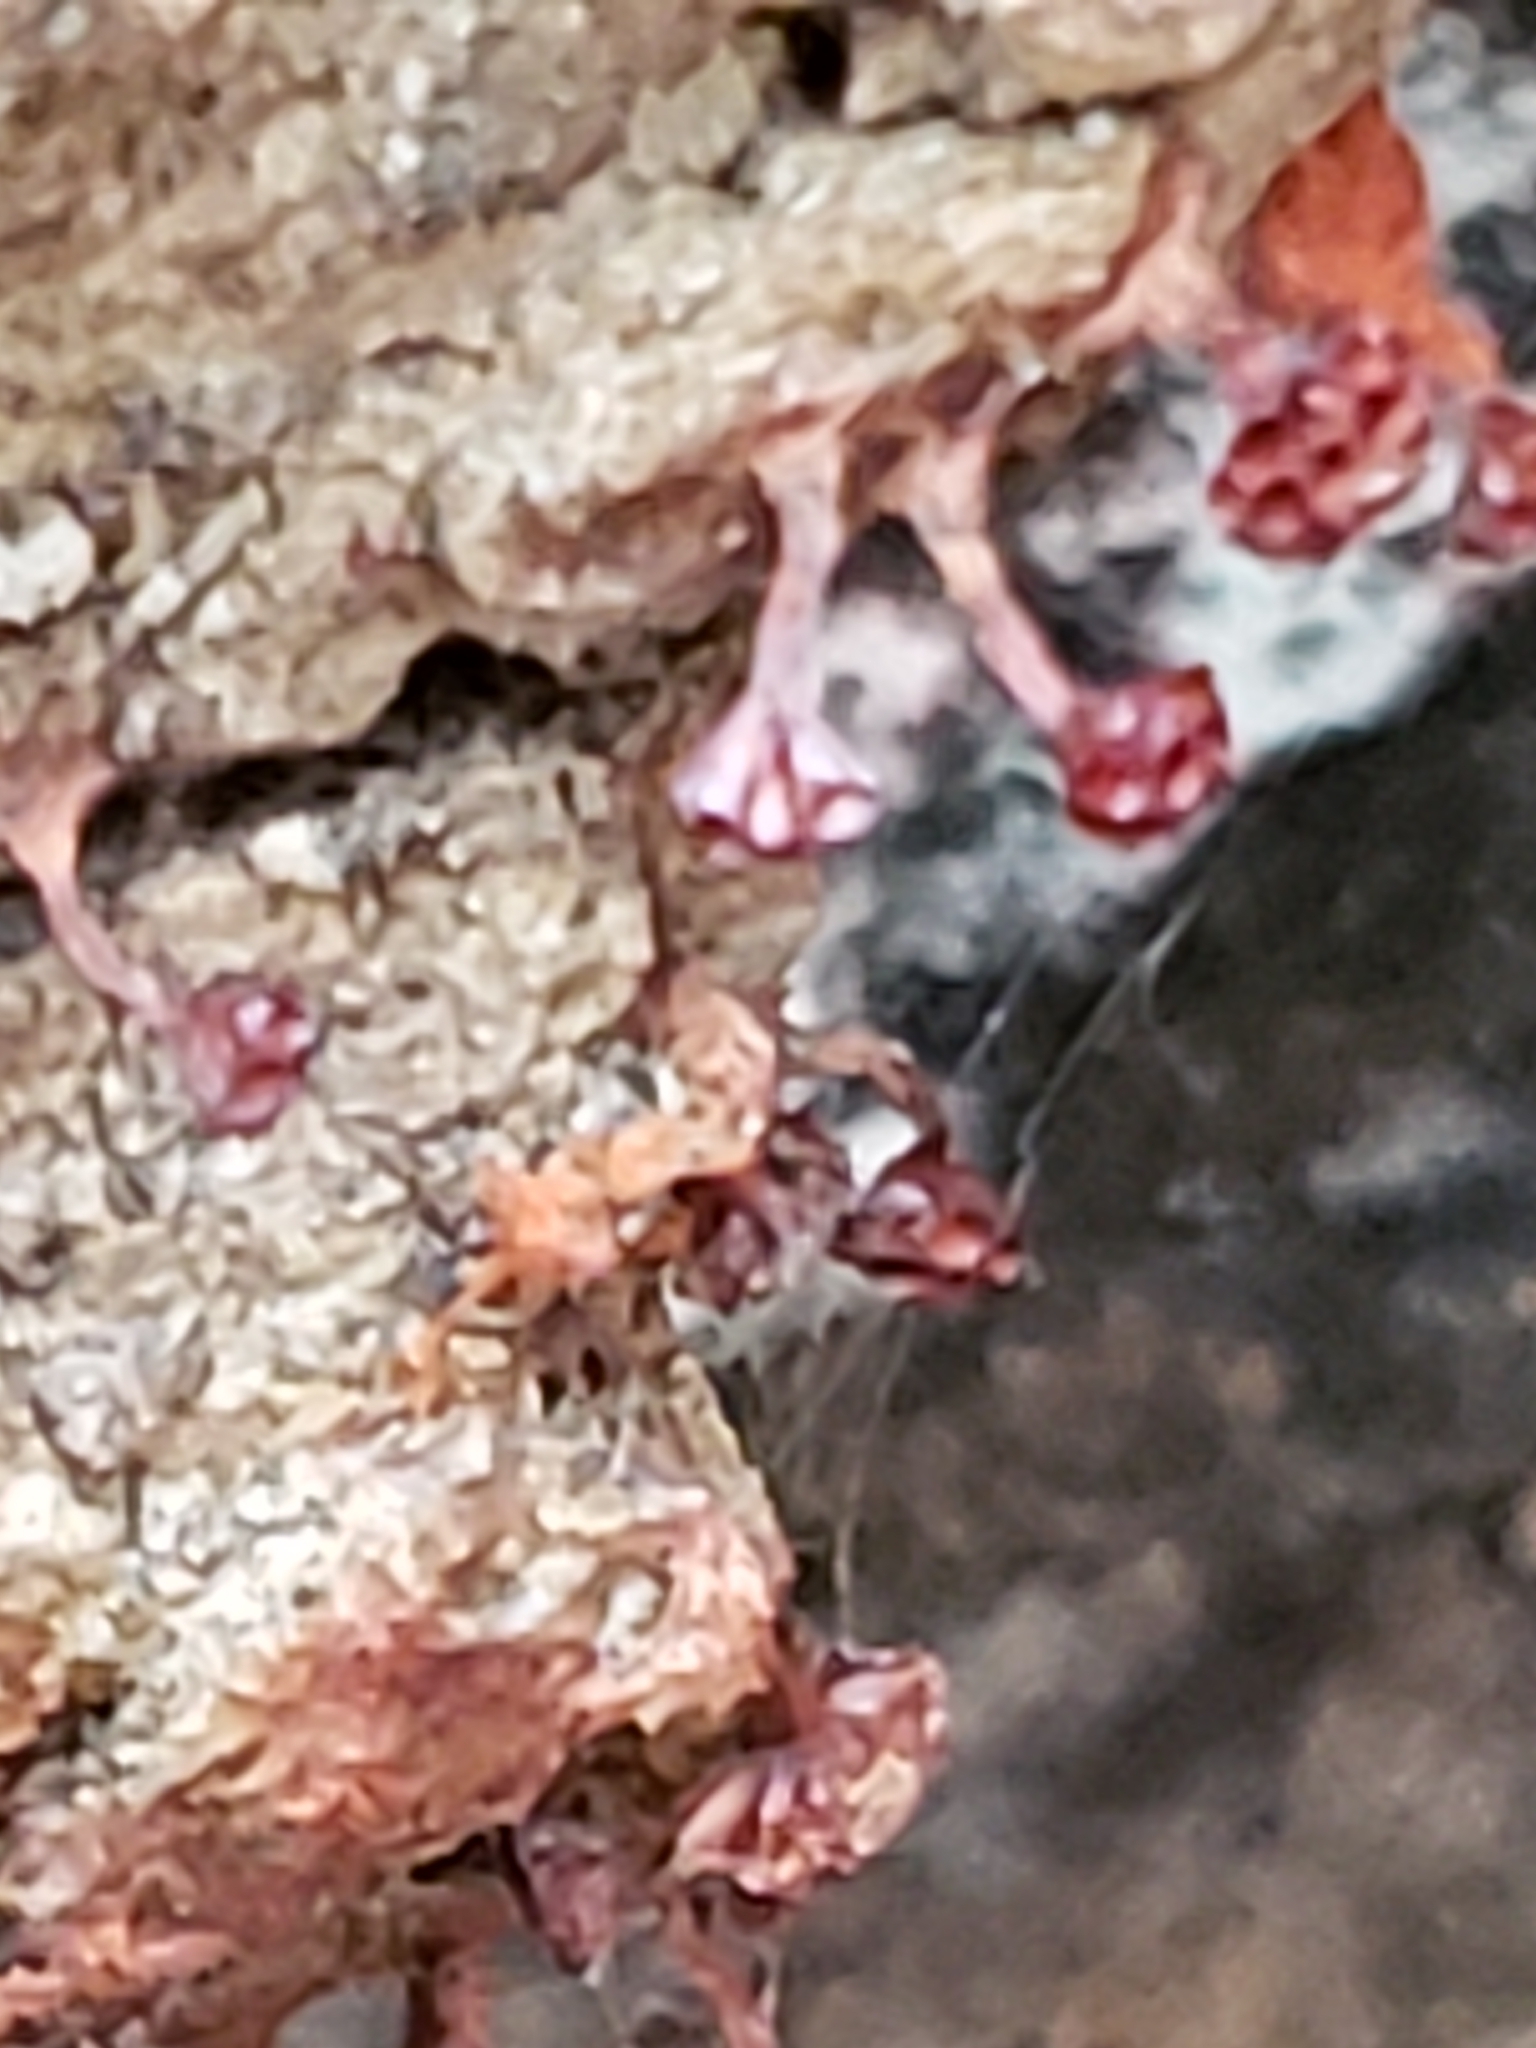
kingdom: Protozoa
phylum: Mycetozoa
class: Myxomycetes
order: Trichiales
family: Trichiaceae
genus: Metatrichia
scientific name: Metatrichia vesparia
